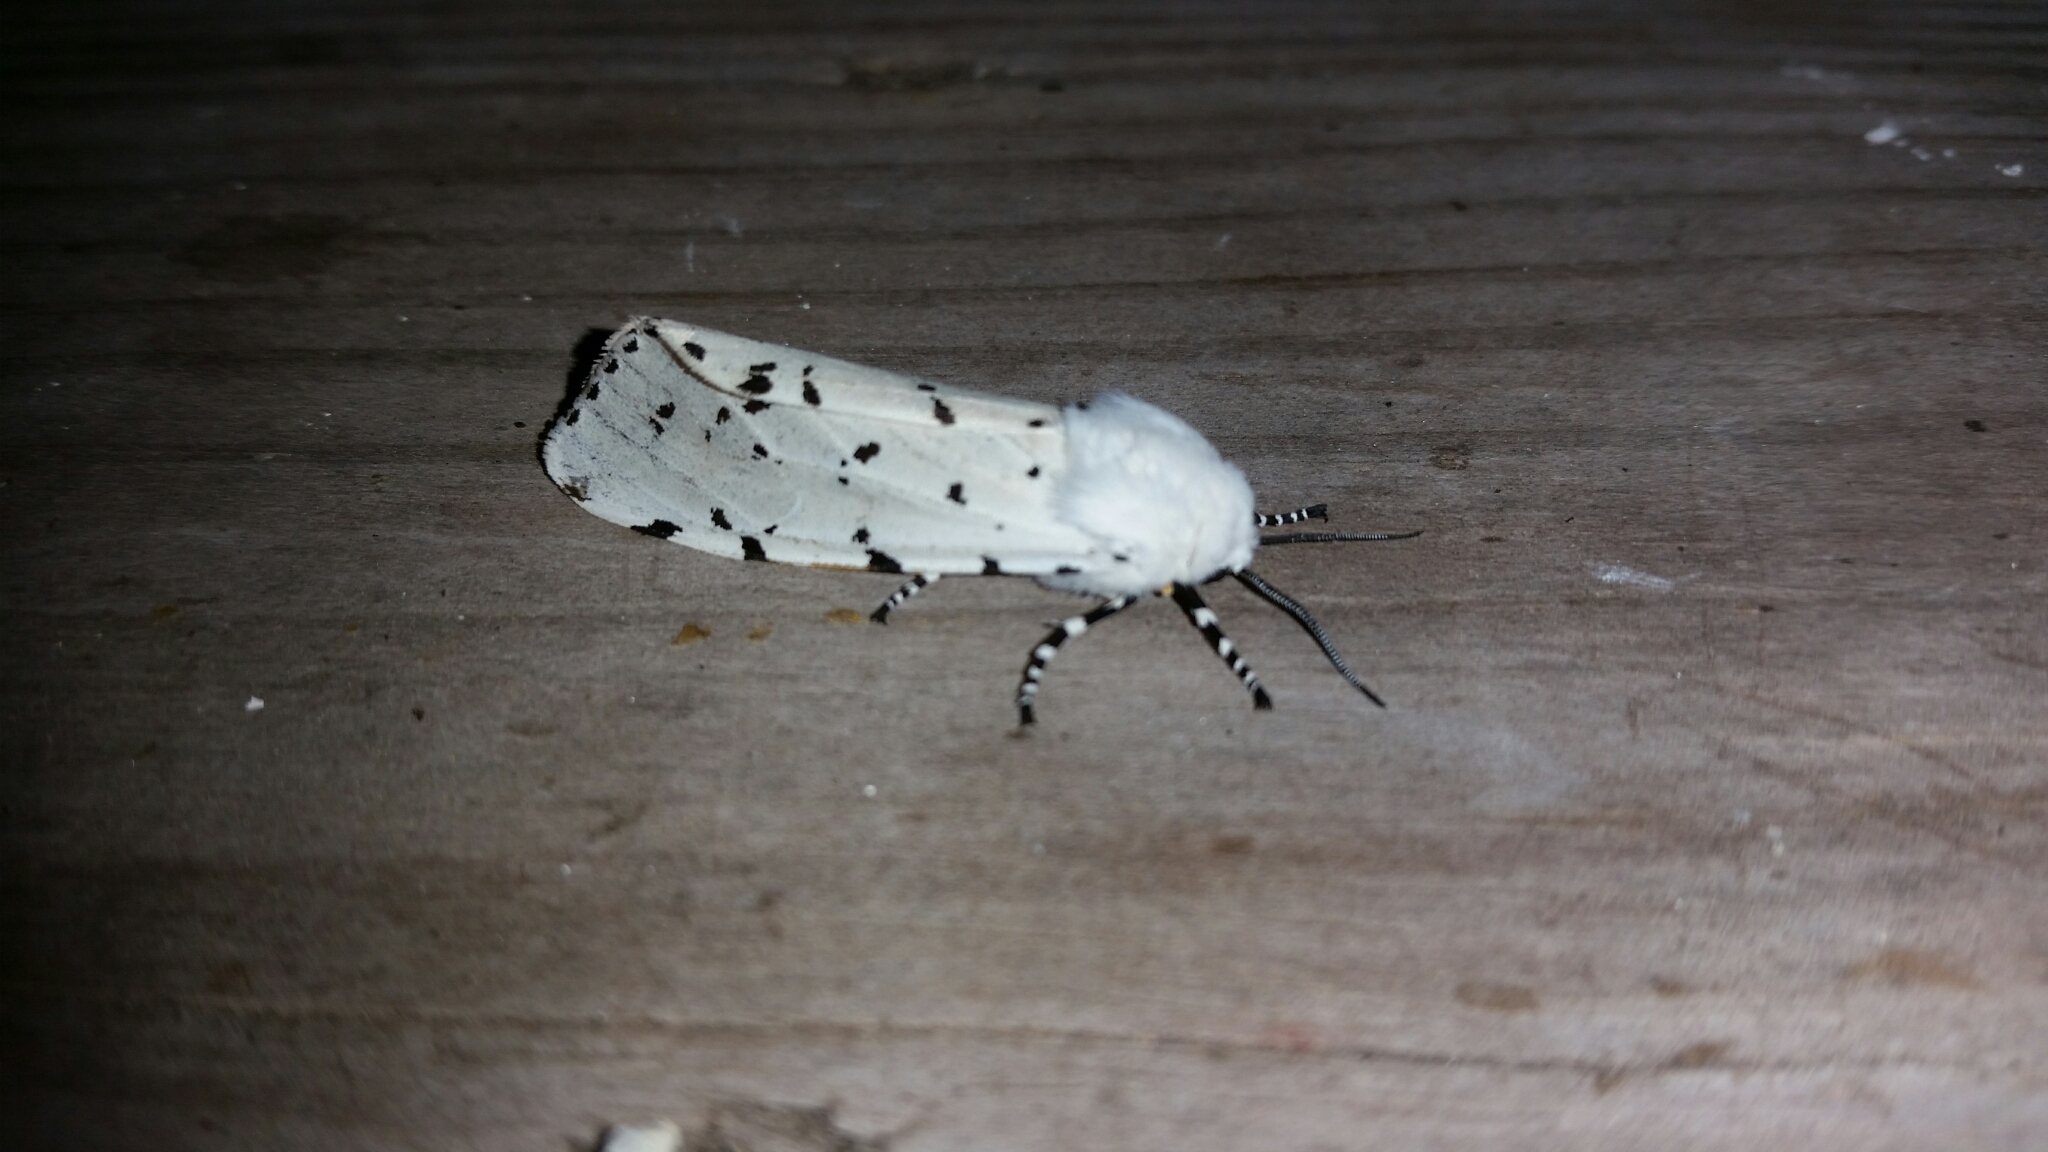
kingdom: Animalia
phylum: Arthropoda
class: Insecta
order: Lepidoptera
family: Erebidae
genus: Estigmene
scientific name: Estigmene acrea
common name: Salt marsh moth
